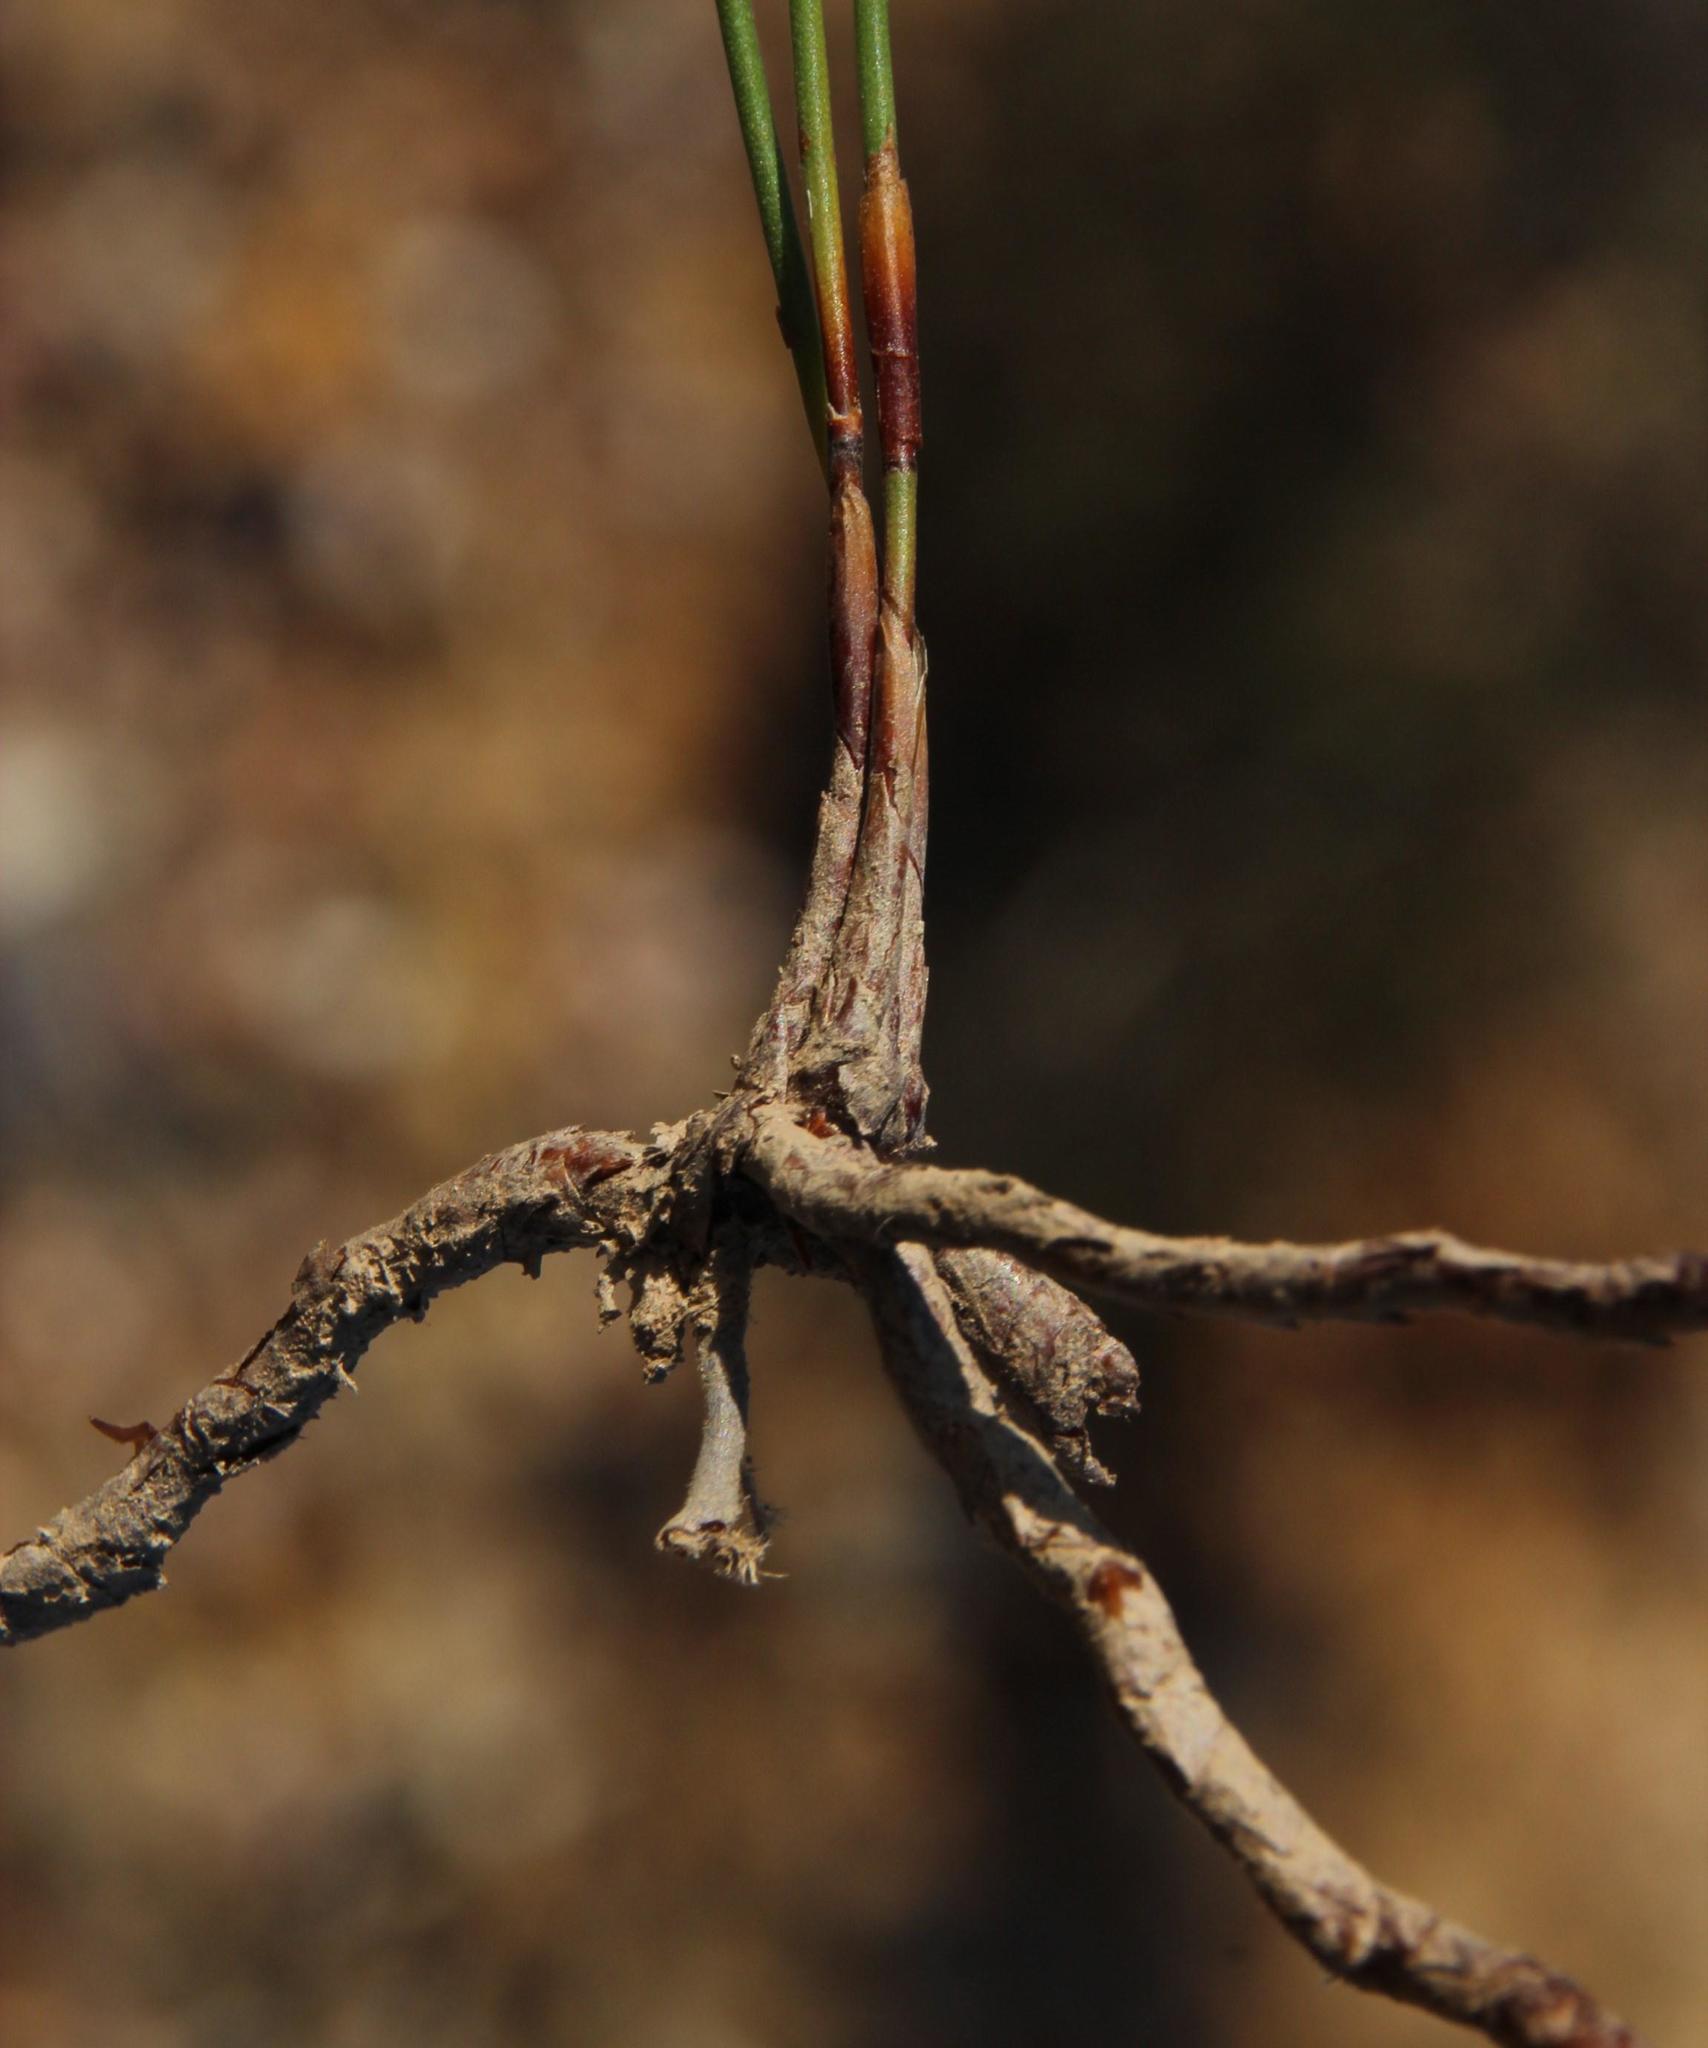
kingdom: Plantae
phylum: Tracheophyta
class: Liliopsida
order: Poales
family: Restionaceae
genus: Elegia
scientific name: Elegia recta
